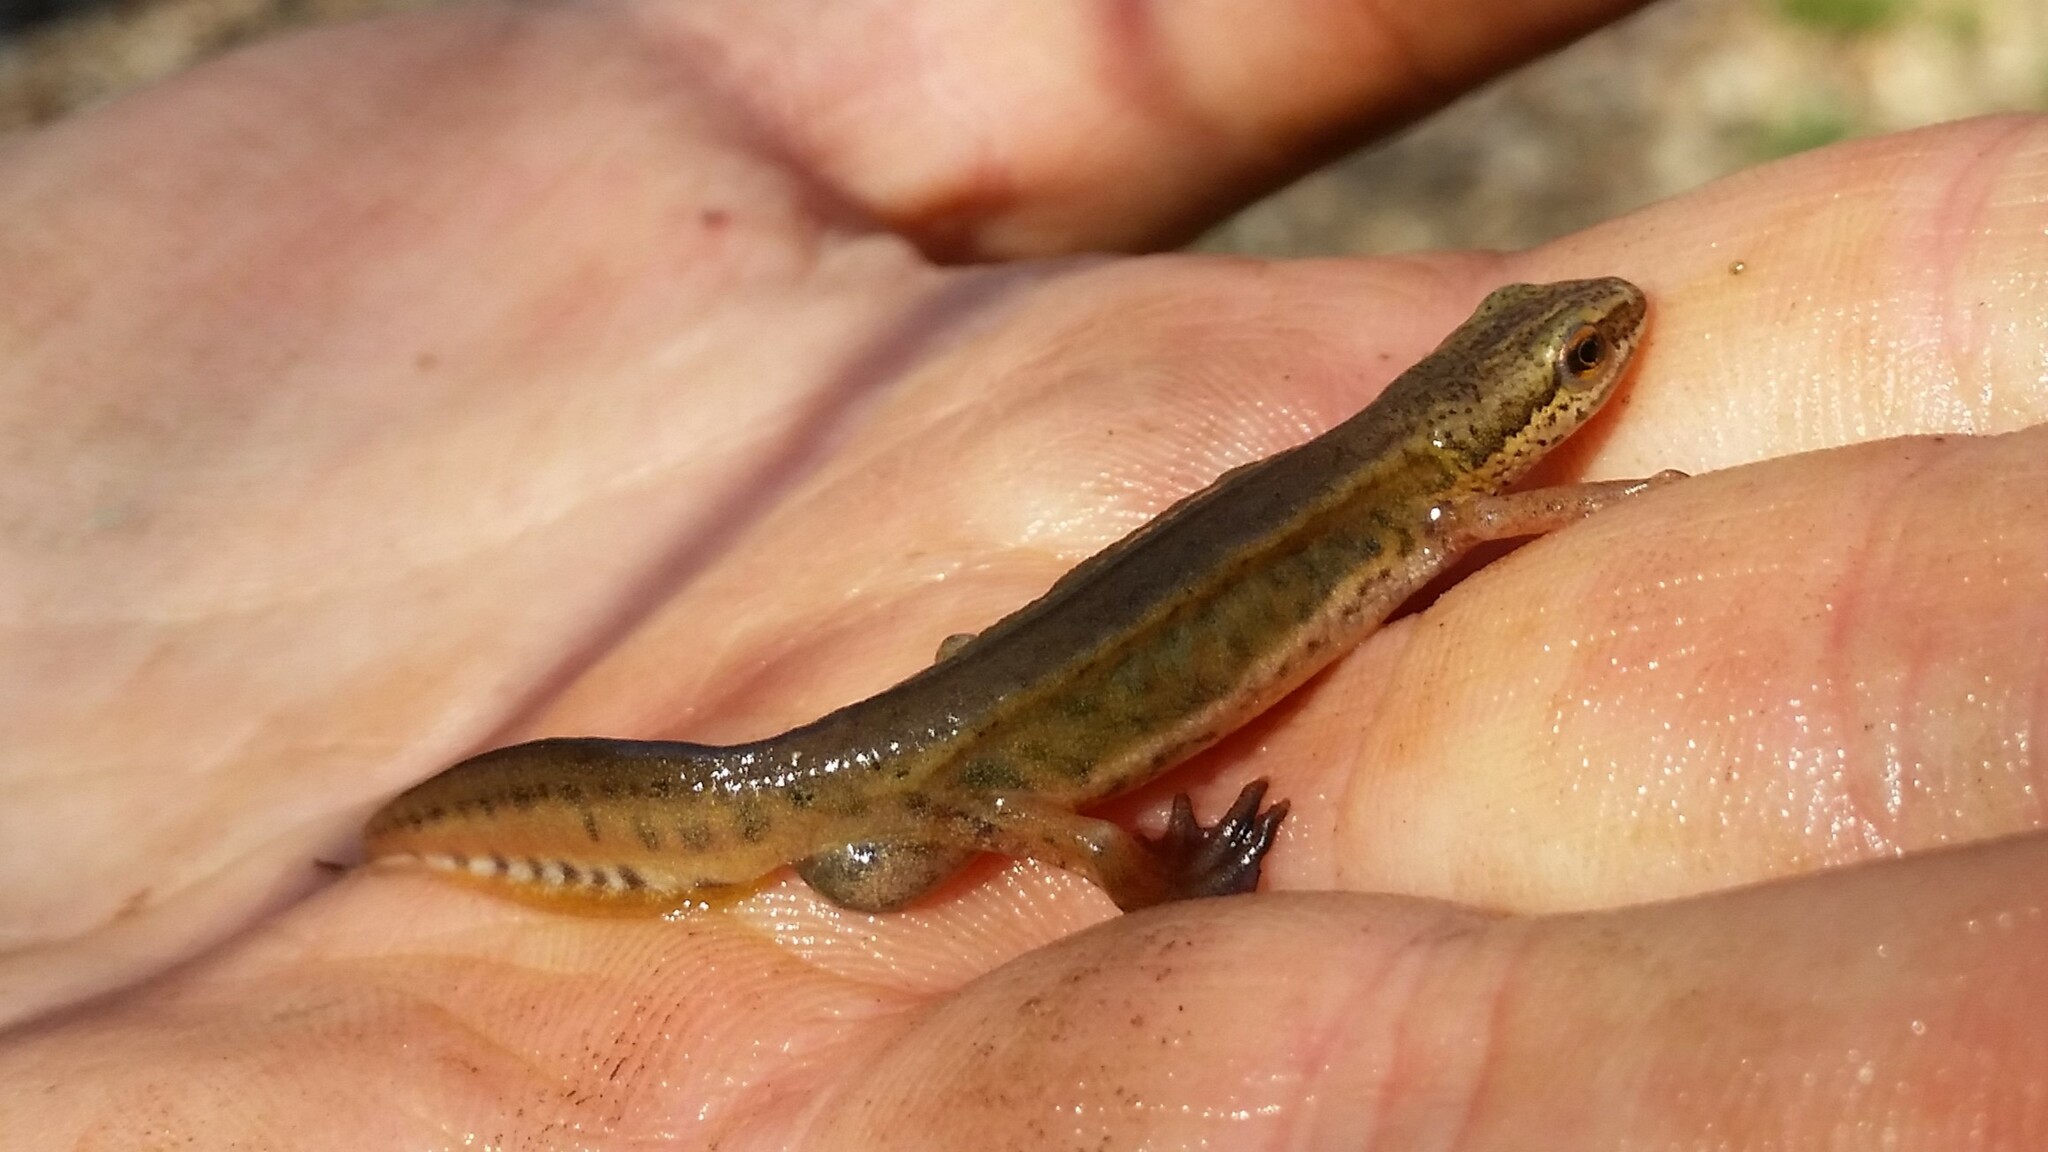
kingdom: Animalia
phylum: Chordata
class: Amphibia
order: Caudata
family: Salamandridae
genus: Lissotriton
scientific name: Lissotriton helveticus
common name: Palmate newt
